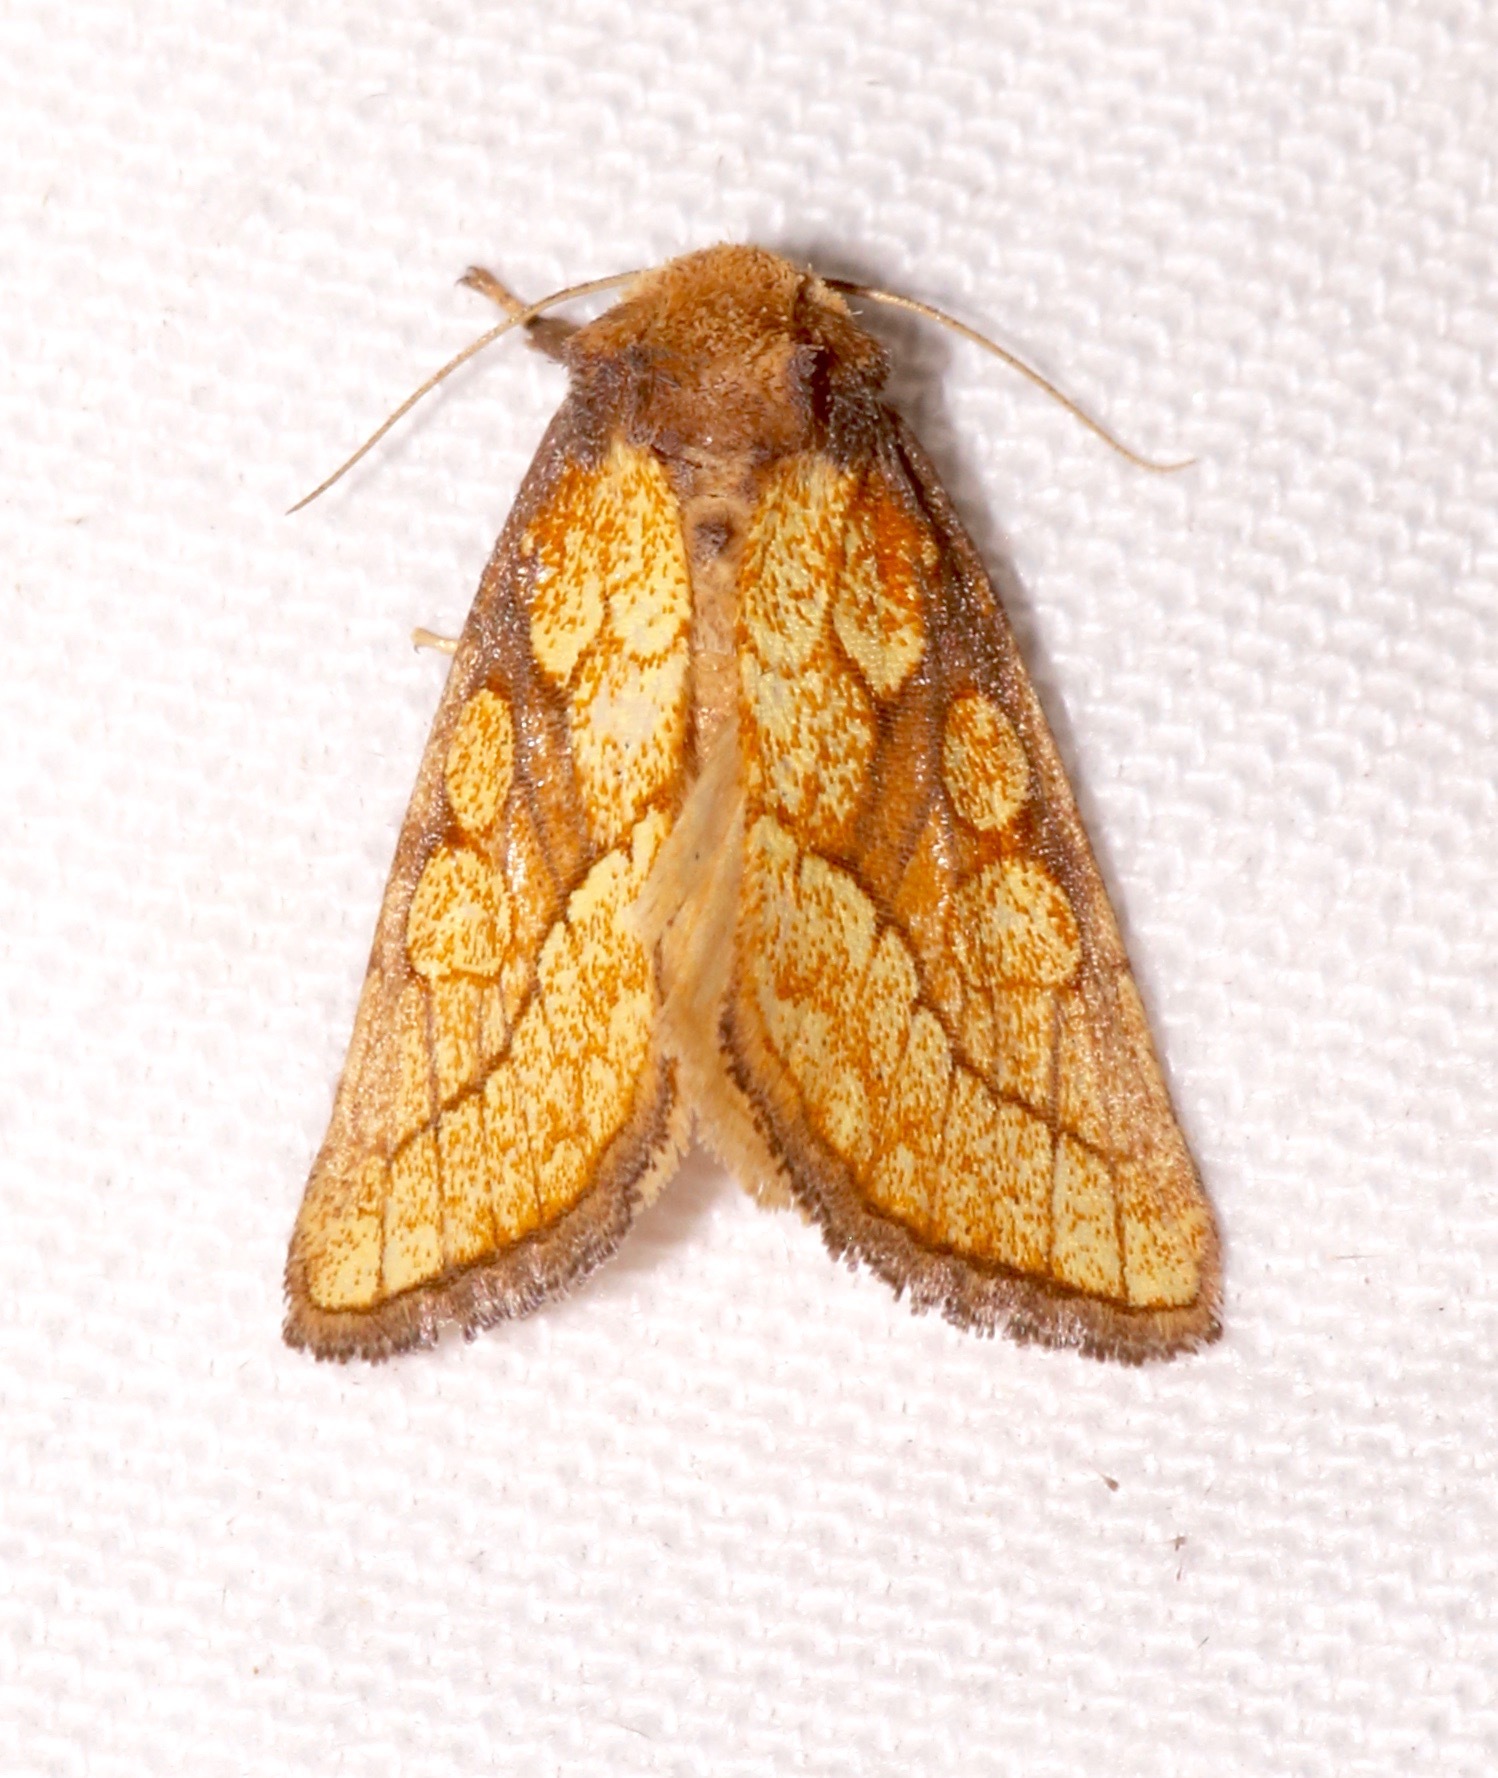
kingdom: Animalia
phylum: Arthropoda
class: Insecta
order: Lepidoptera
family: Noctuidae
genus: Nocloa
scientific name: Nocloa alcandra
